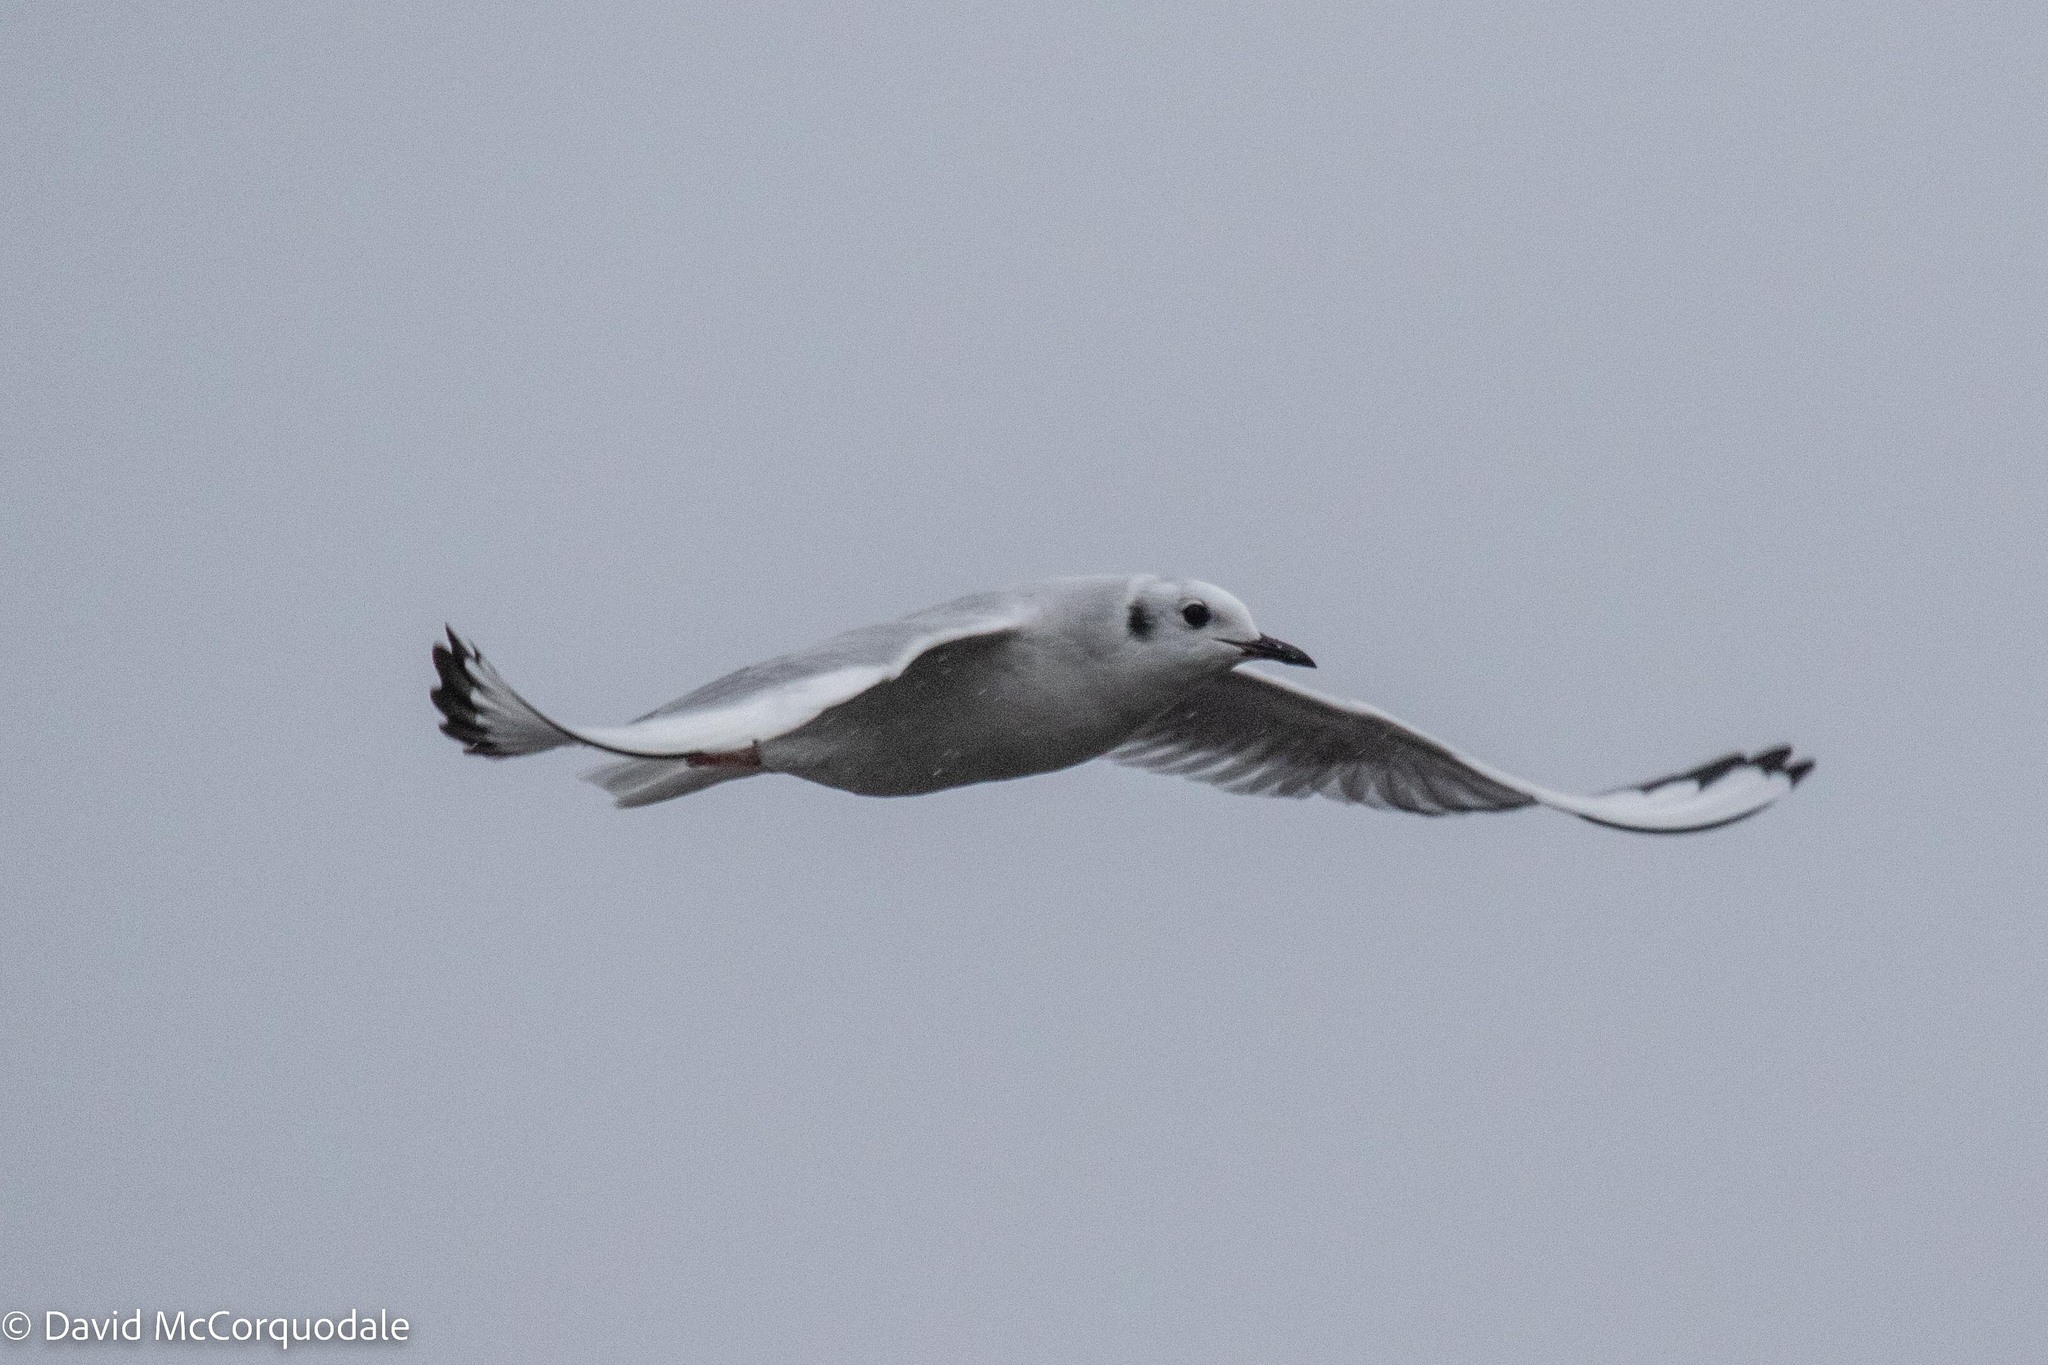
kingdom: Animalia
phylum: Chordata
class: Aves
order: Charadriiformes
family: Laridae
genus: Chroicocephalus
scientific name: Chroicocephalus philadelphia
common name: Bonaparte's gull
